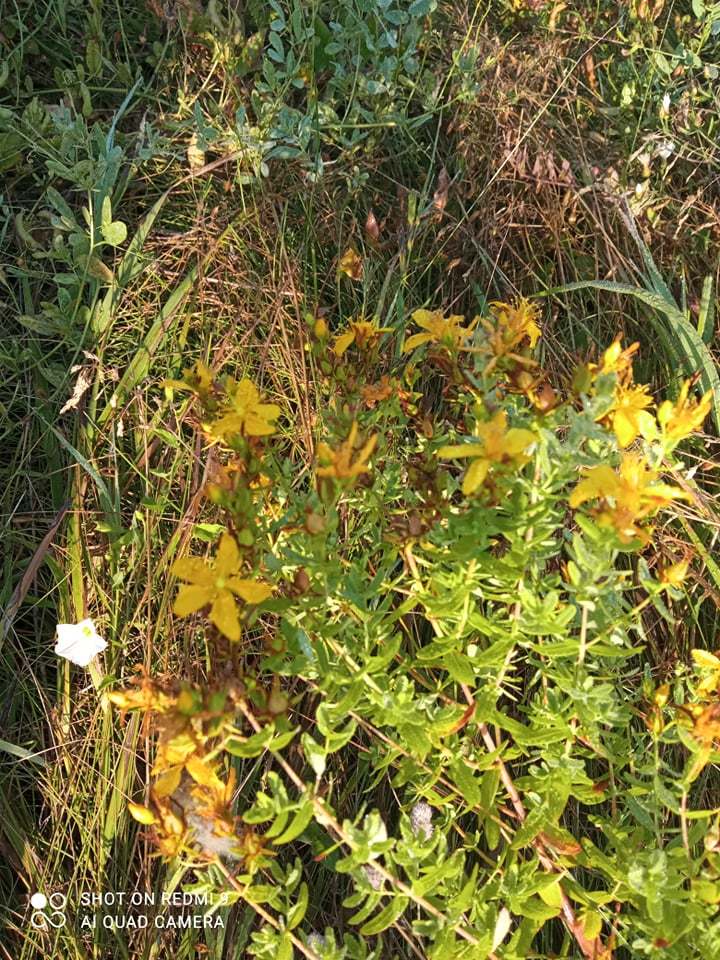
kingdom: Plantae
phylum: Tracheophyta
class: Magnoliopsida
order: Malpighiales
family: Hypericaceae
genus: Hypericum
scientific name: Hypericum perforatum
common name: Common st. johnswort
